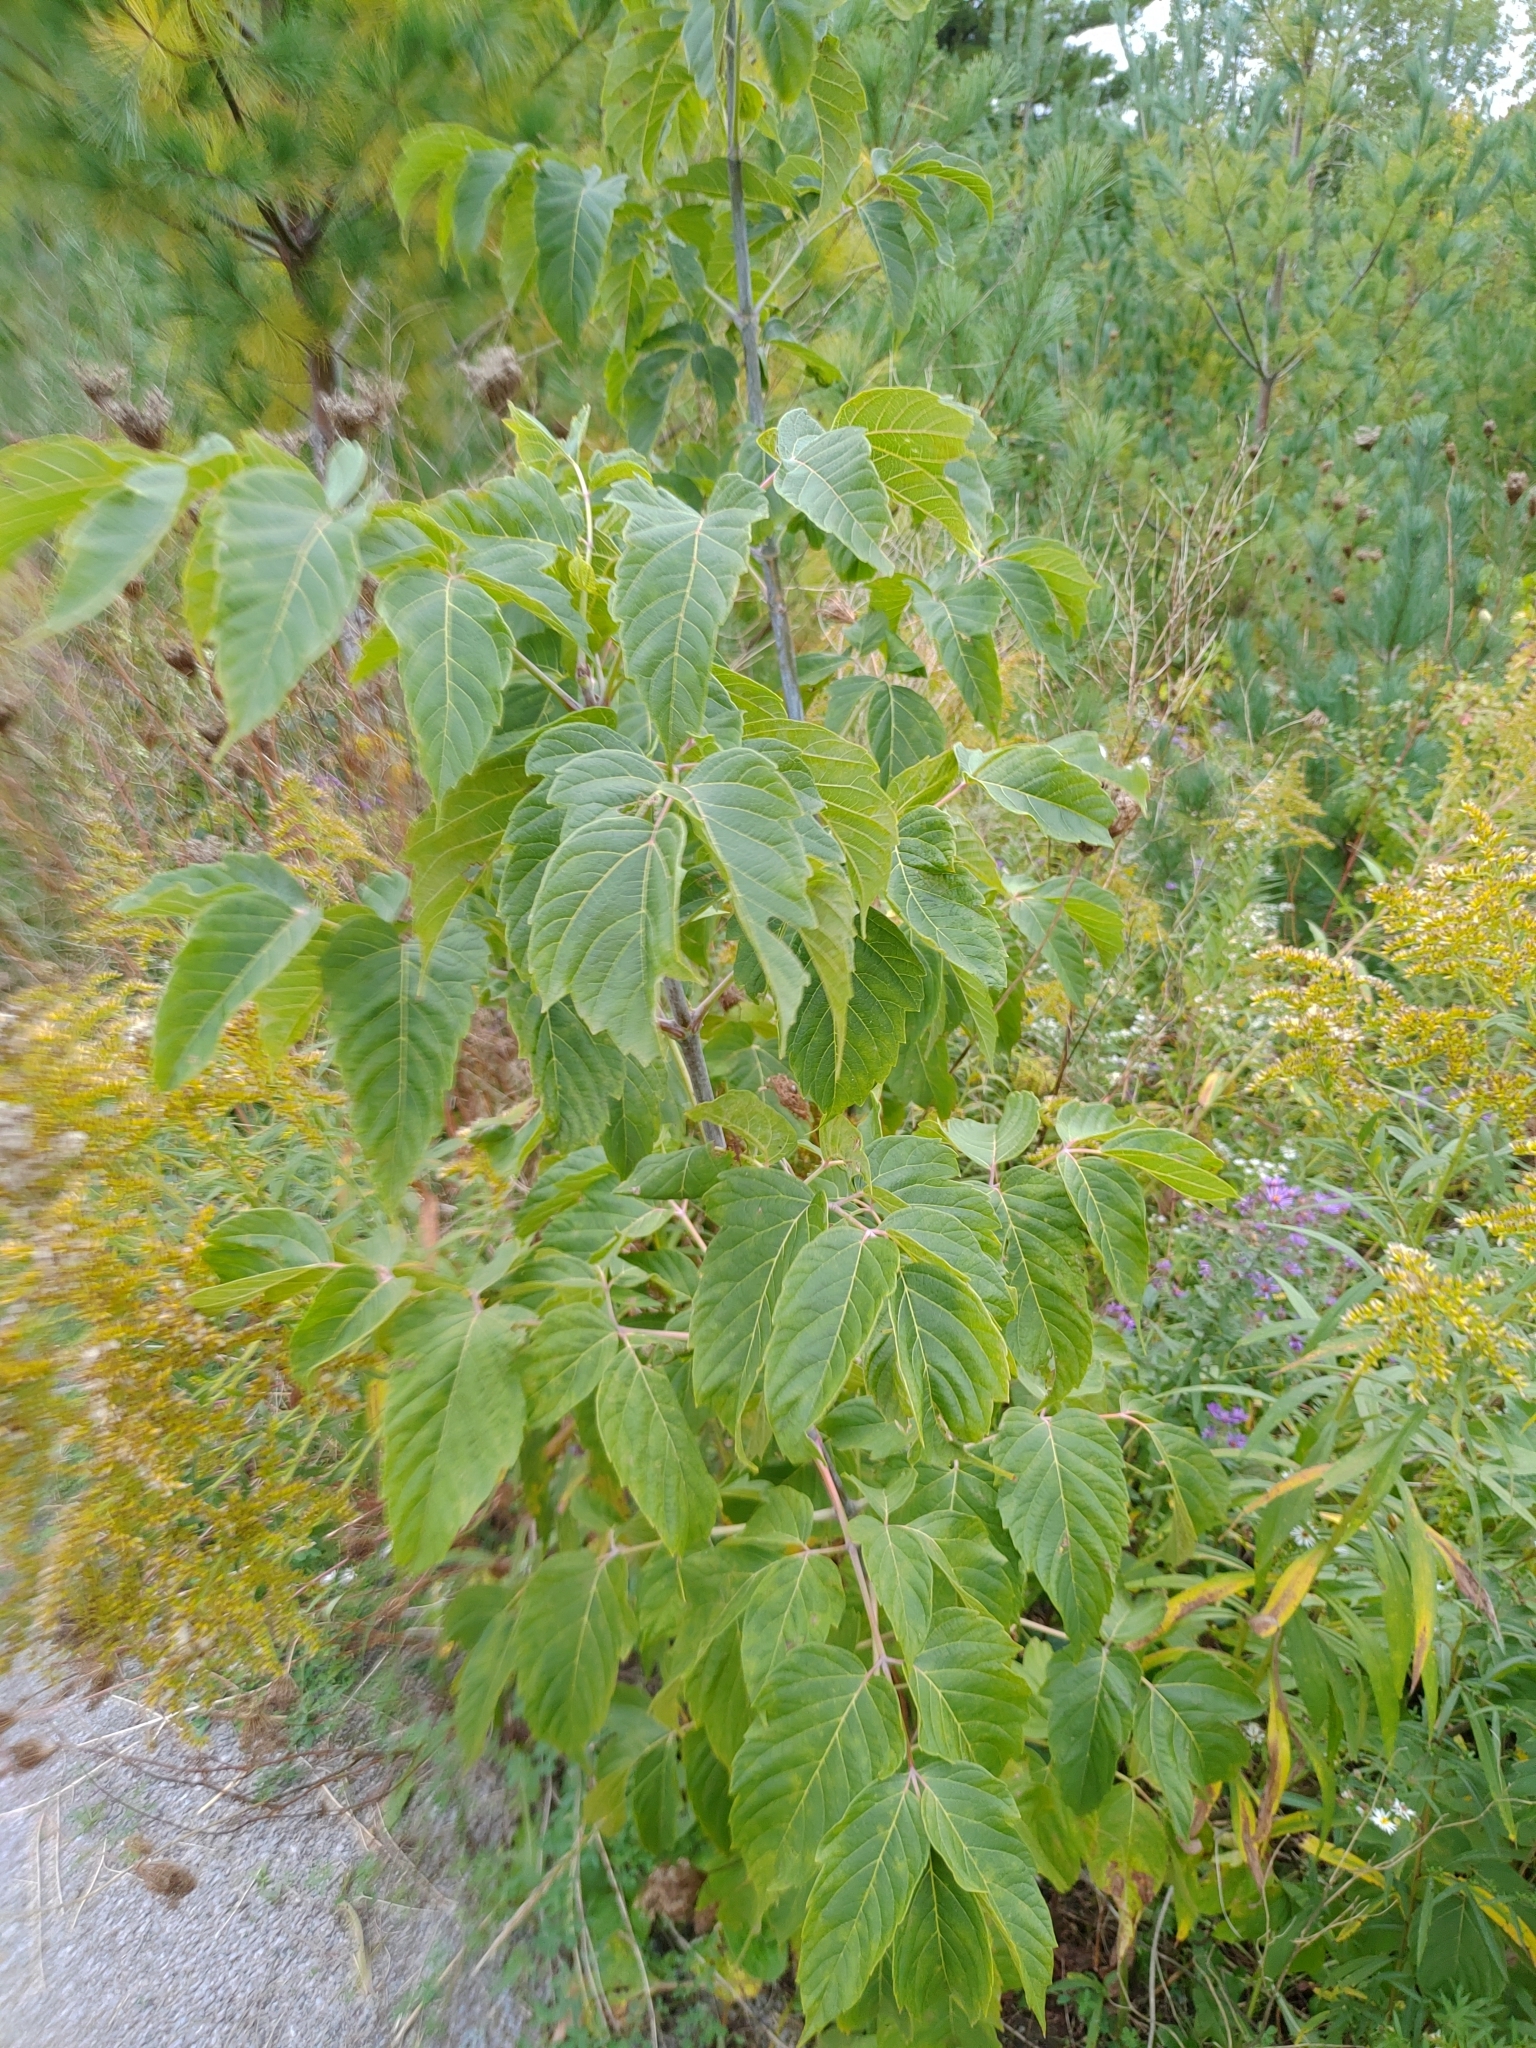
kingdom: Plantae
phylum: Tracheophyta
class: Magnoliopsida
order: Sapindales
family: Sapindaceae
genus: Acer
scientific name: Acer negundo
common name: Ashleaf maple
